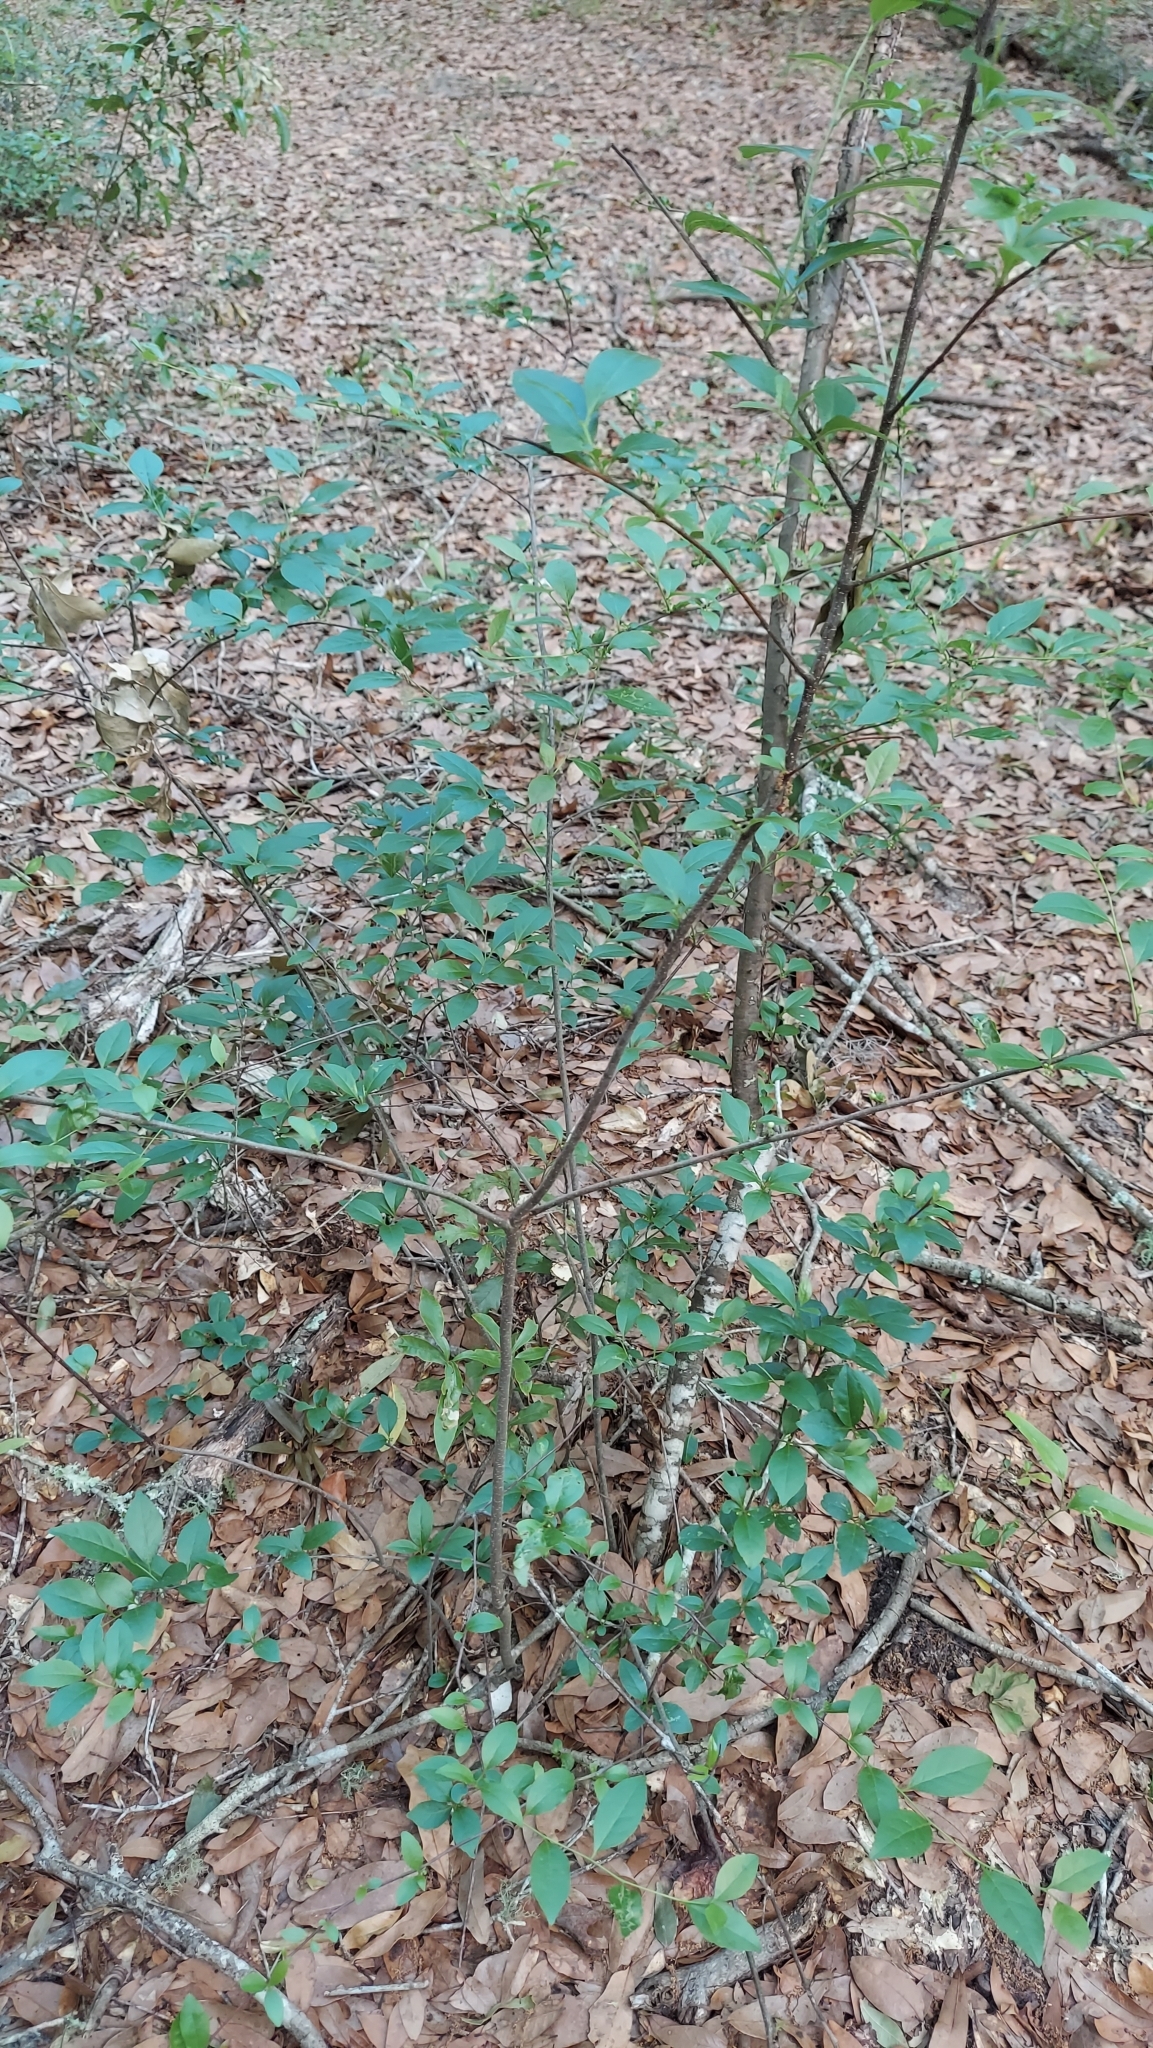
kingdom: Plantae
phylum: Tracheophyta
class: Magnoliopsida
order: Aquifoliales
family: Aquifoliaceae
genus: Ilex
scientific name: Ilex ambigua
